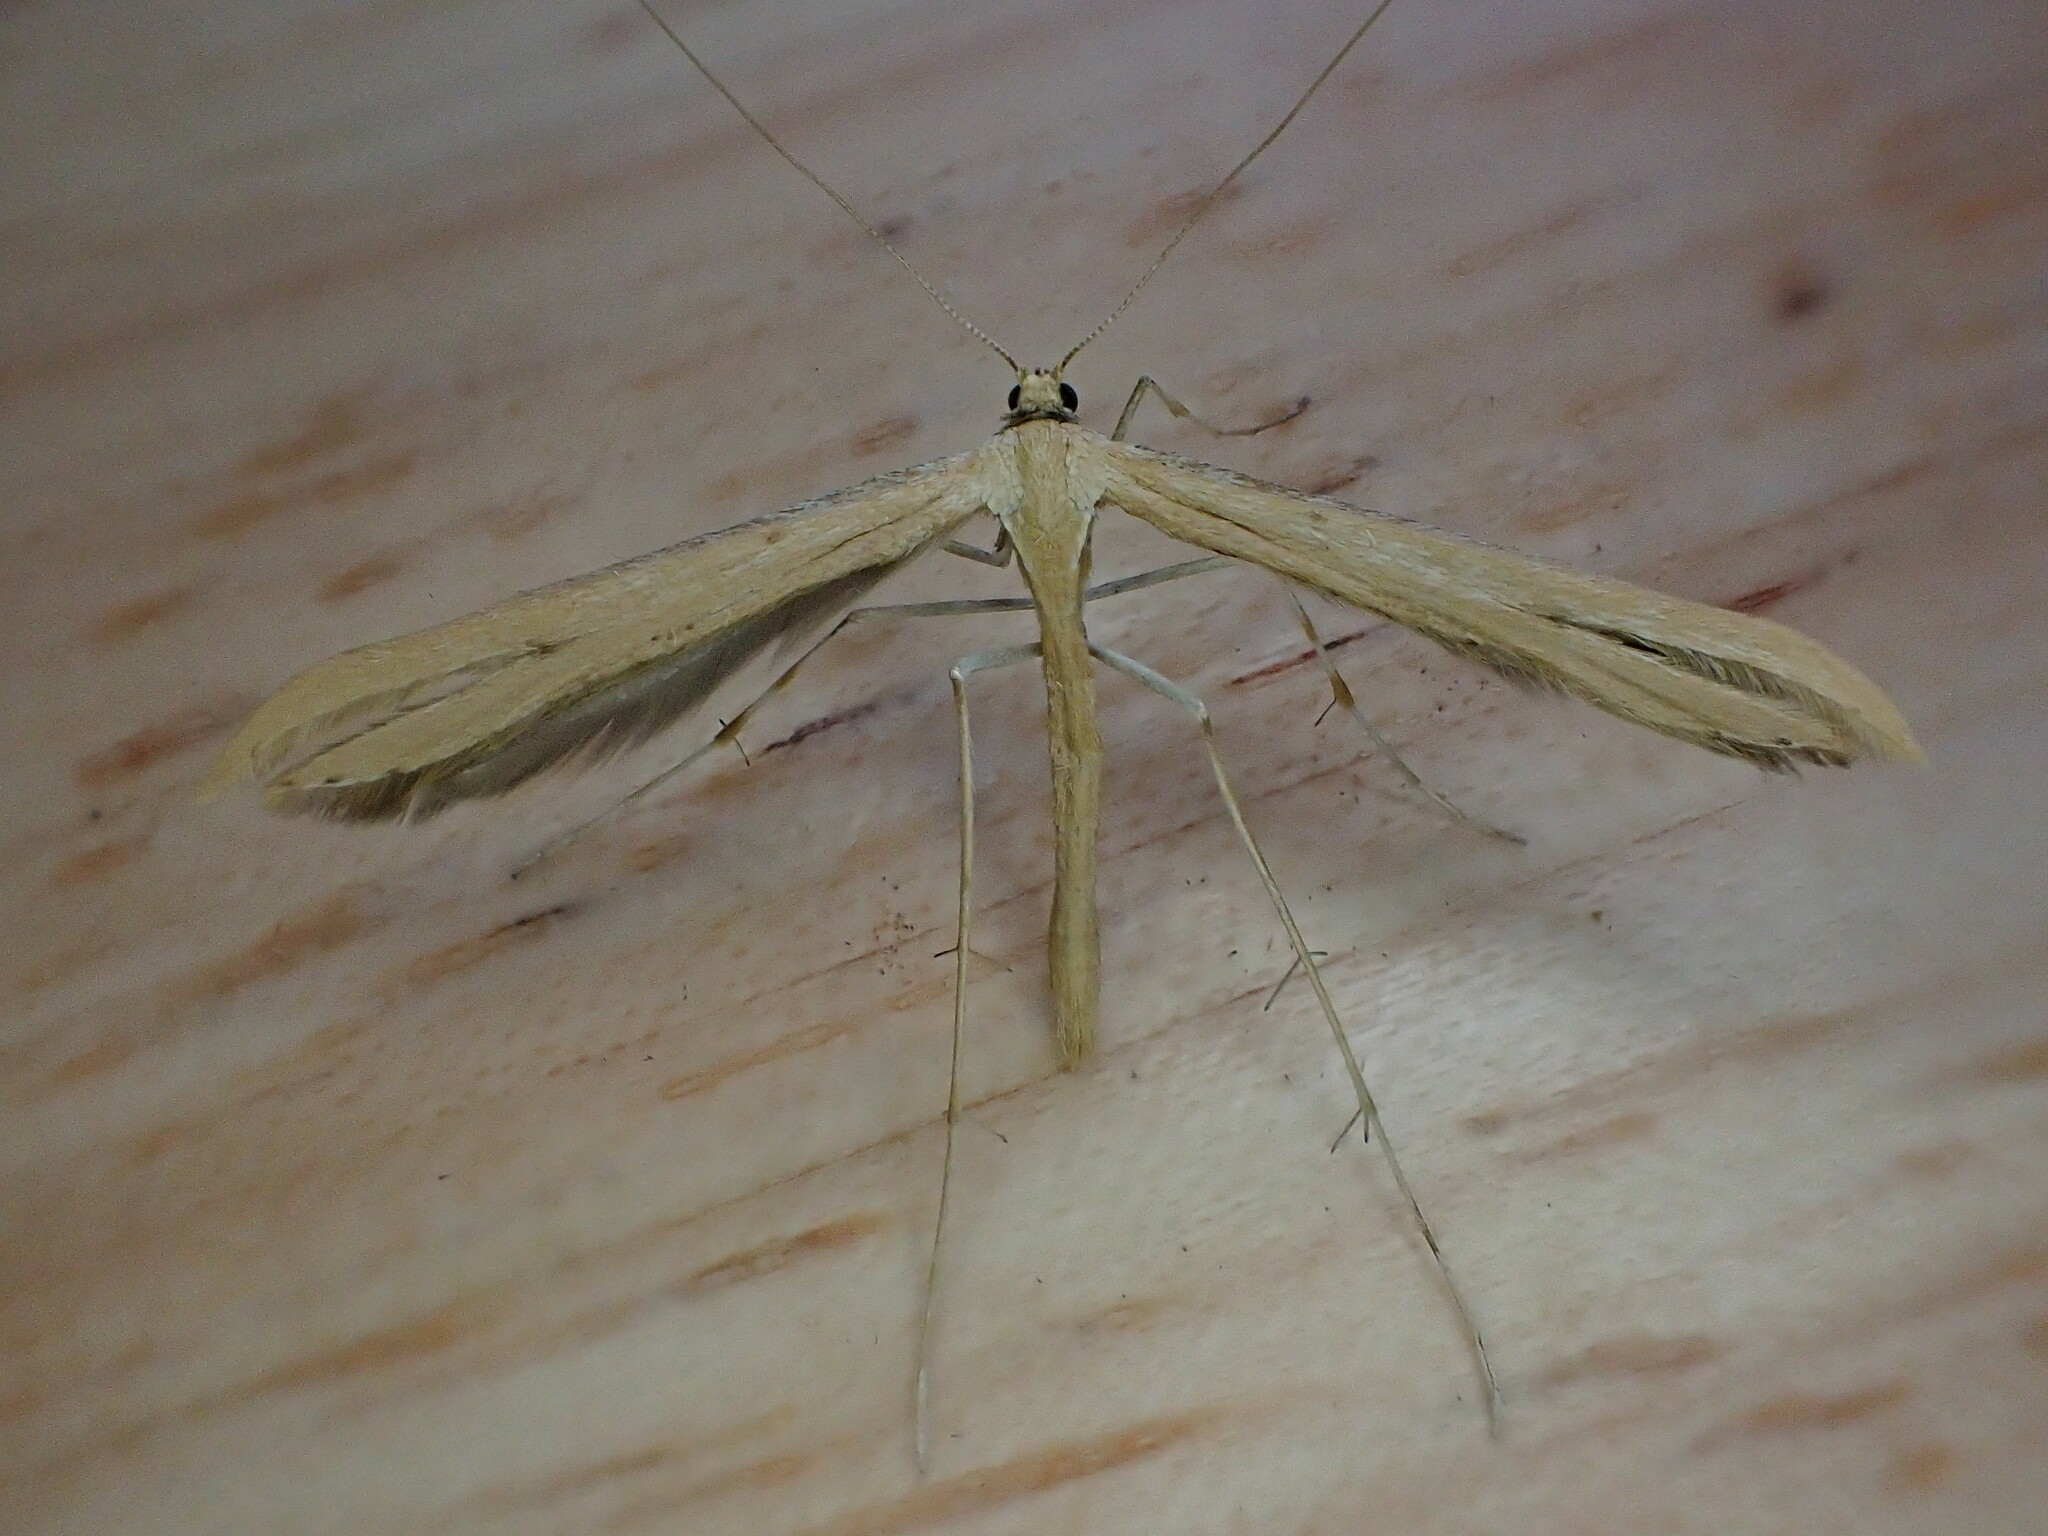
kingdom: Animalia
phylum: Arthropoda
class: Insecta
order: Lepidoptera
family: Pterophoridae
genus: Emmelina
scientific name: Emmelina monodactyla
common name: Common plume
